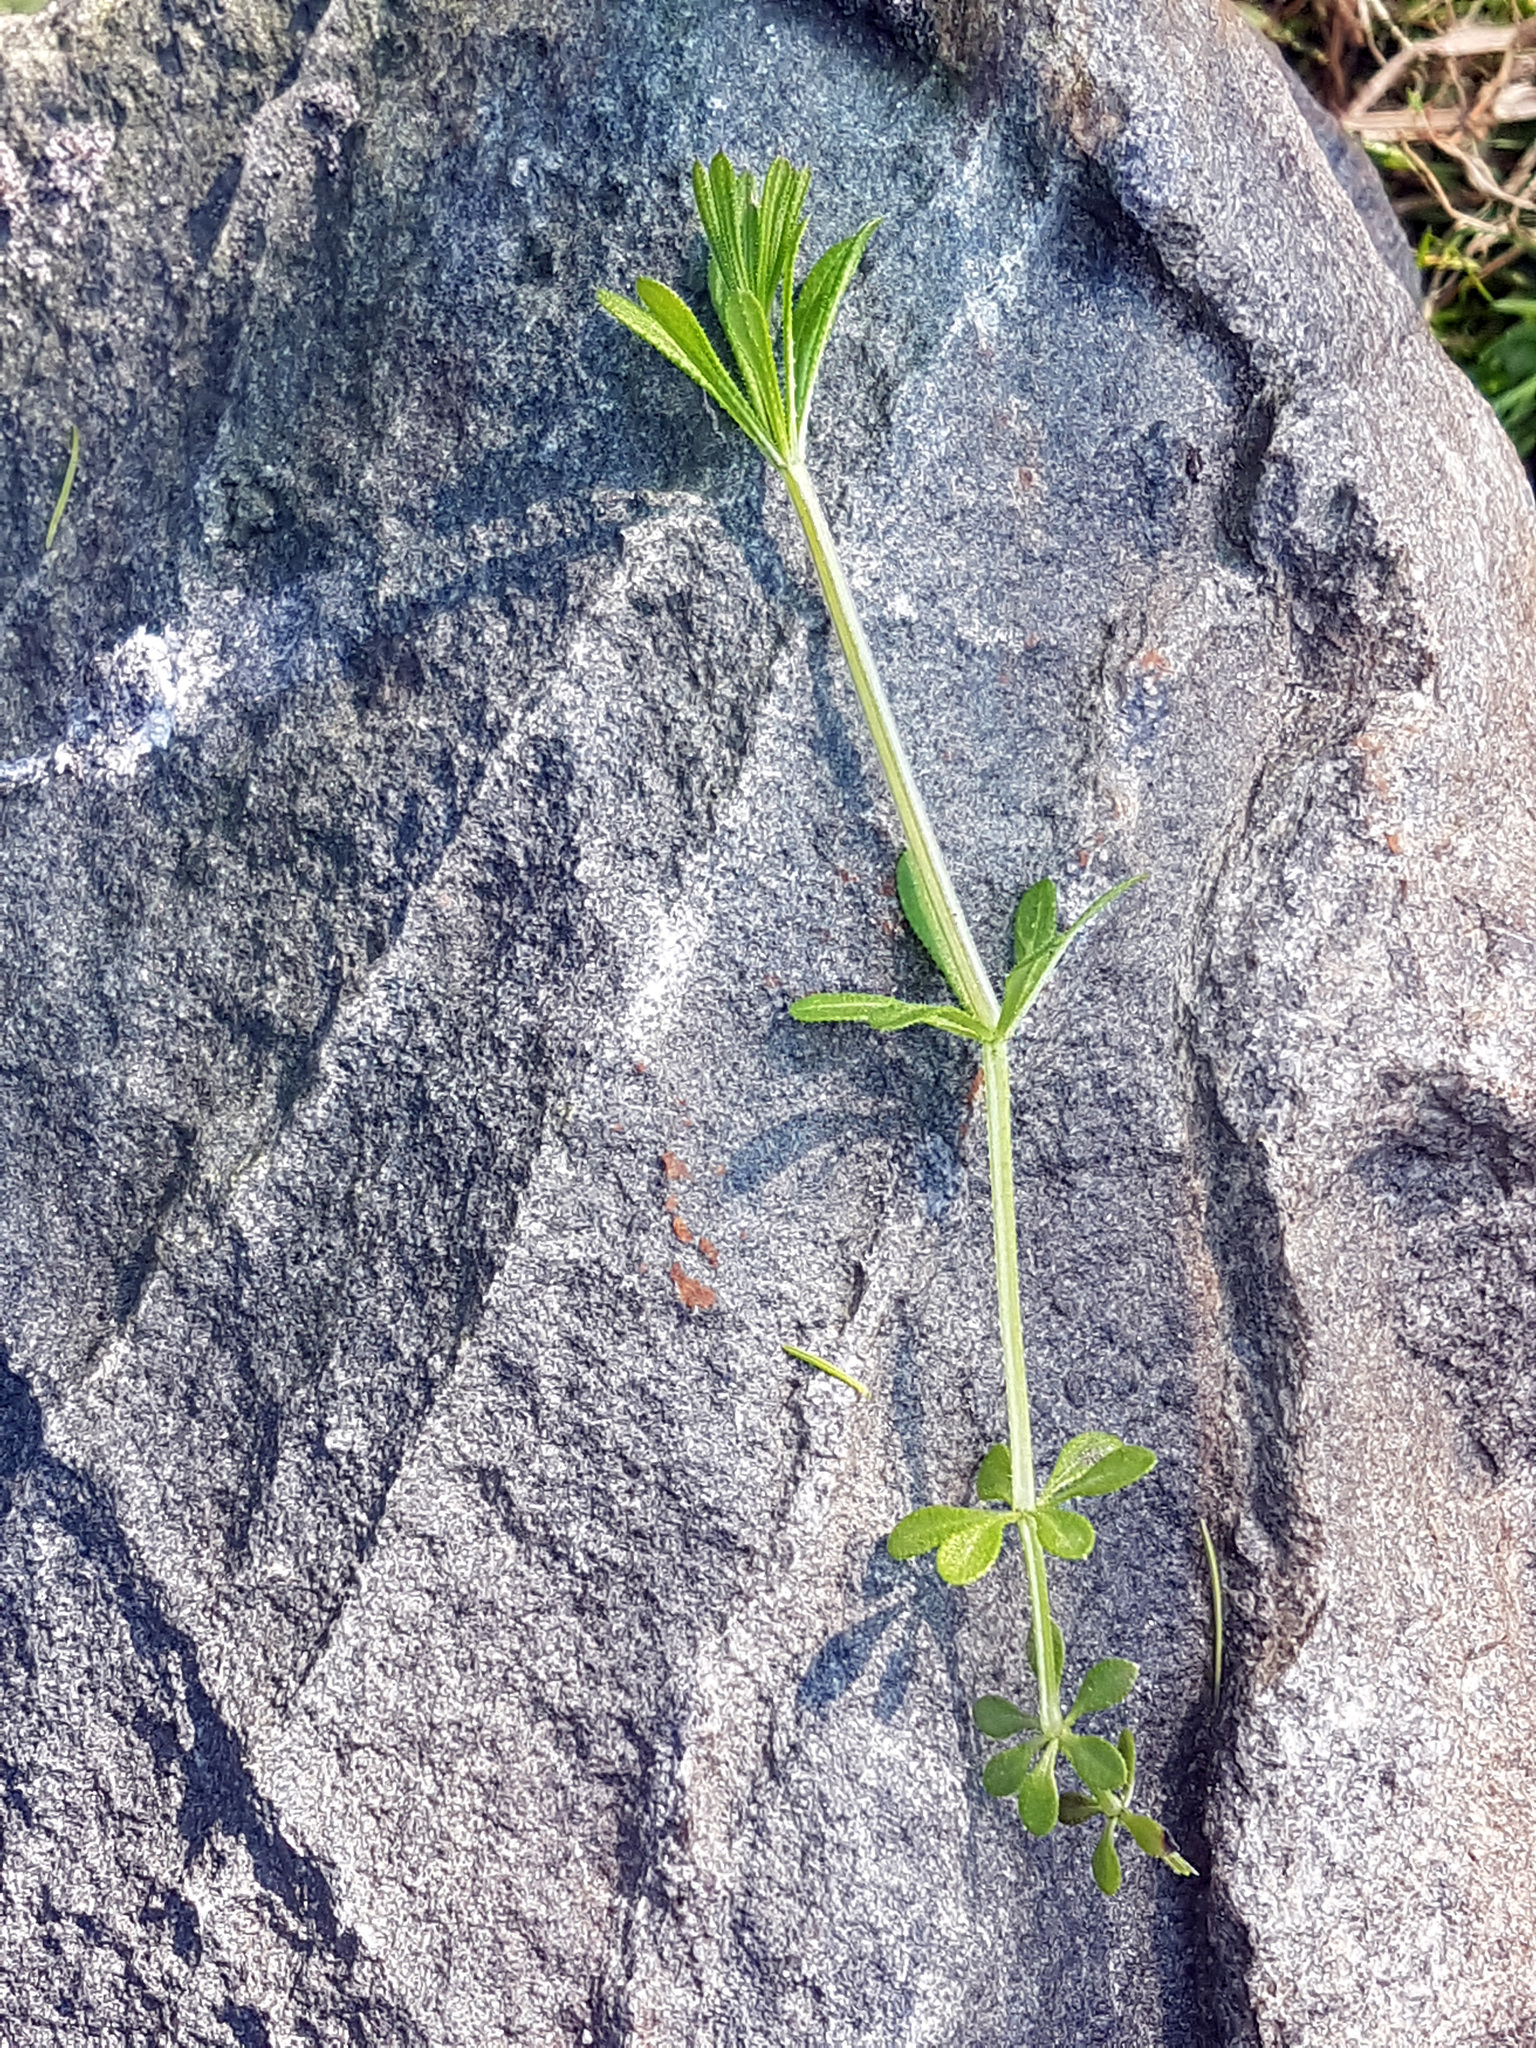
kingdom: Plantae
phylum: Tracheophyta
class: Magnoliopsida
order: Gentianales
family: Rubiaceae
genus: Galium
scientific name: Galium aparine
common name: Cleavers
